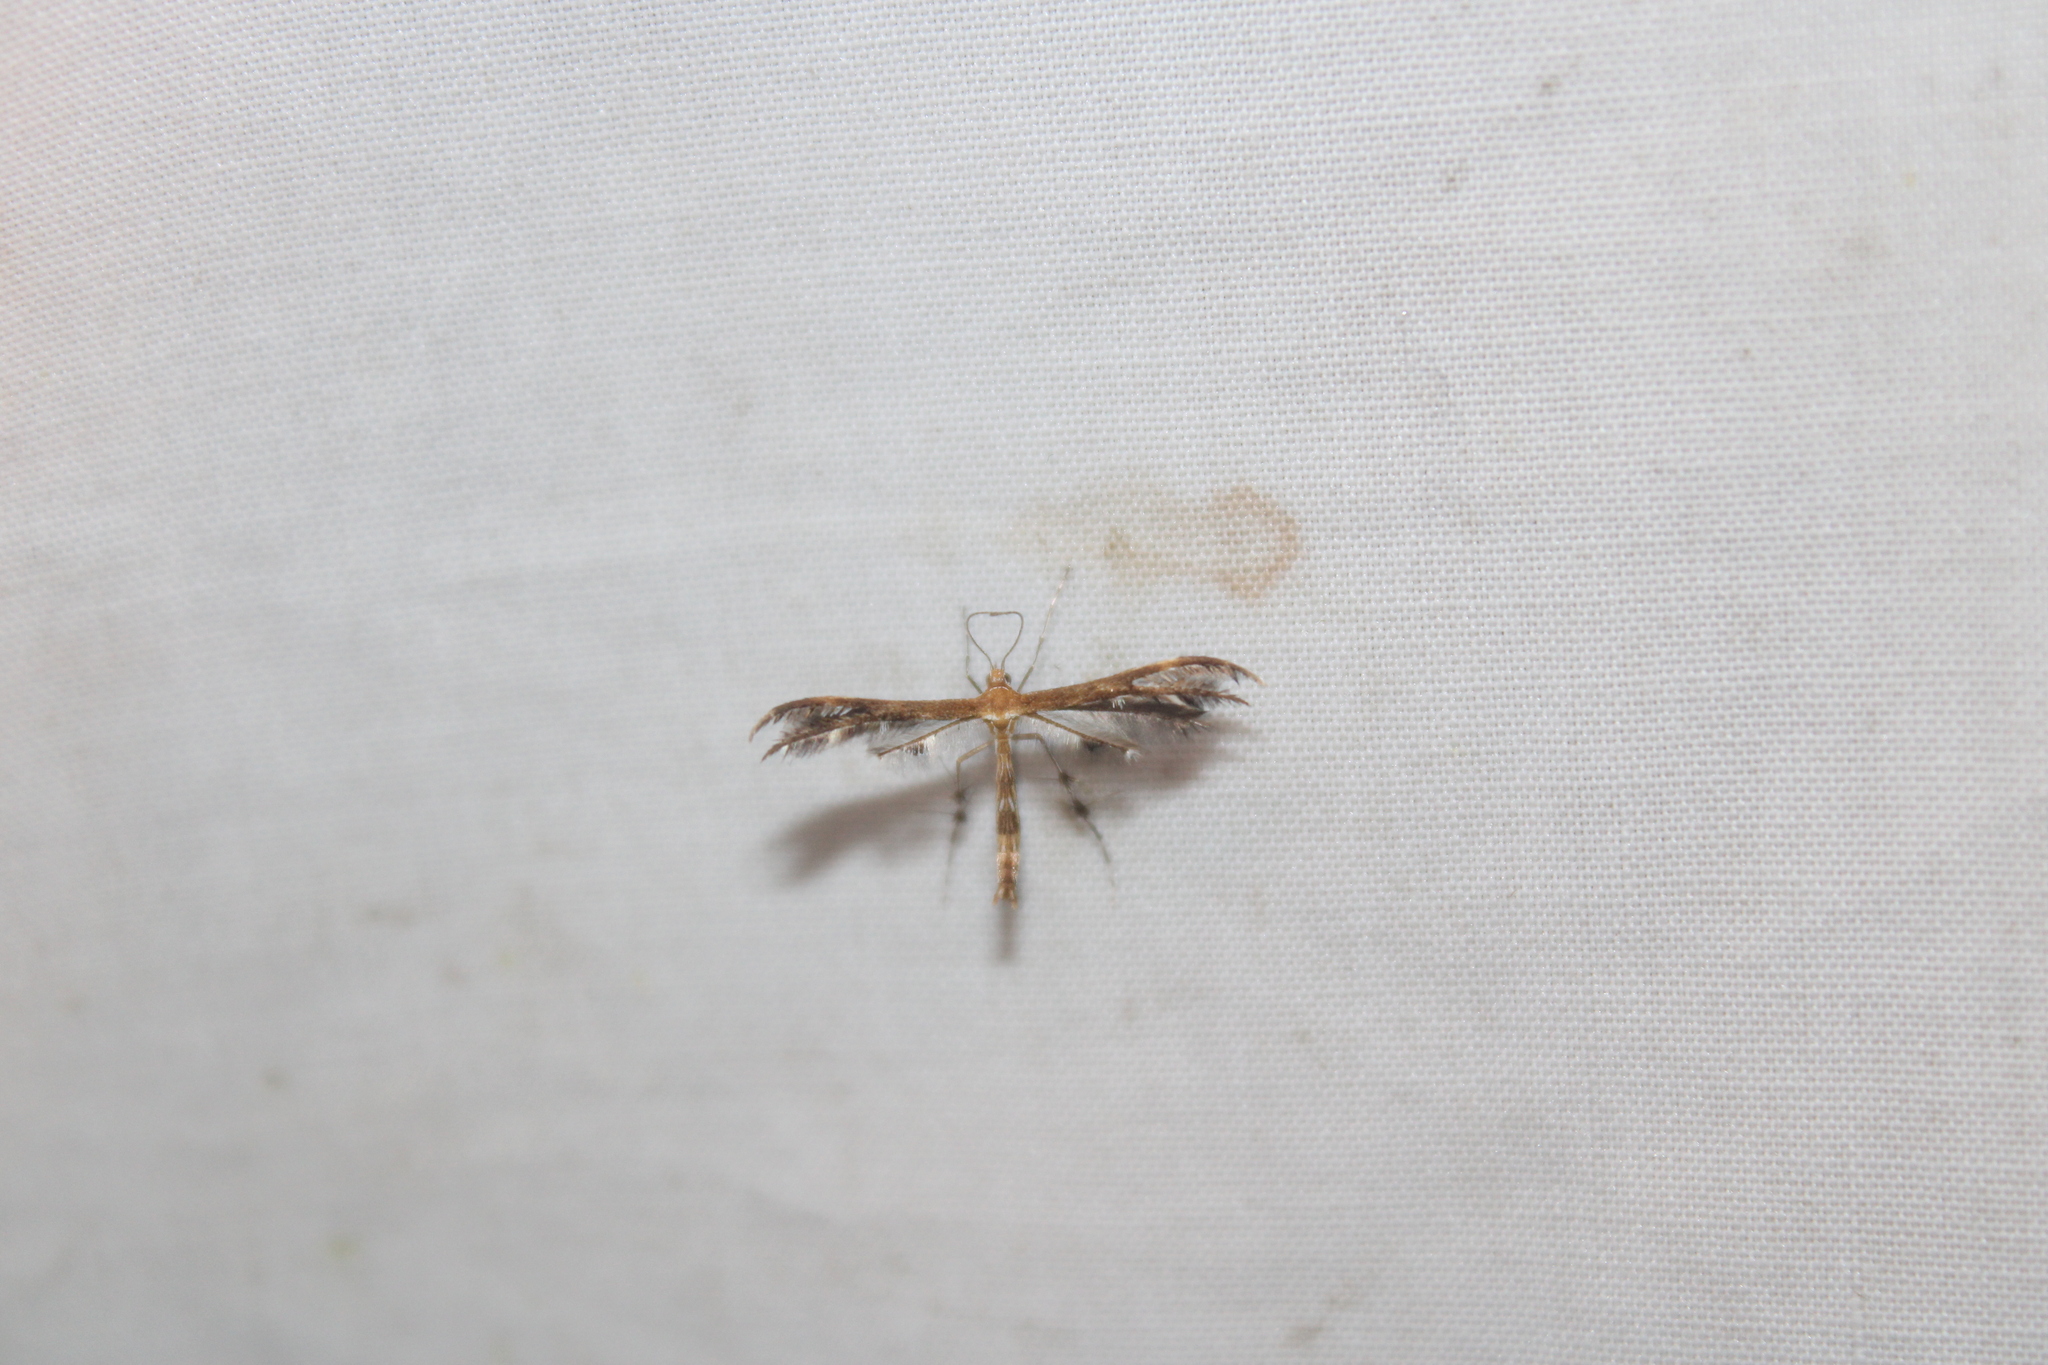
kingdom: Animalia
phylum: Arthropoda
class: Insecta
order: Lepidoptera
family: Pterophoridae
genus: Dejongia
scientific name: Dejongia lobidactylus
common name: Lobed plume moth
